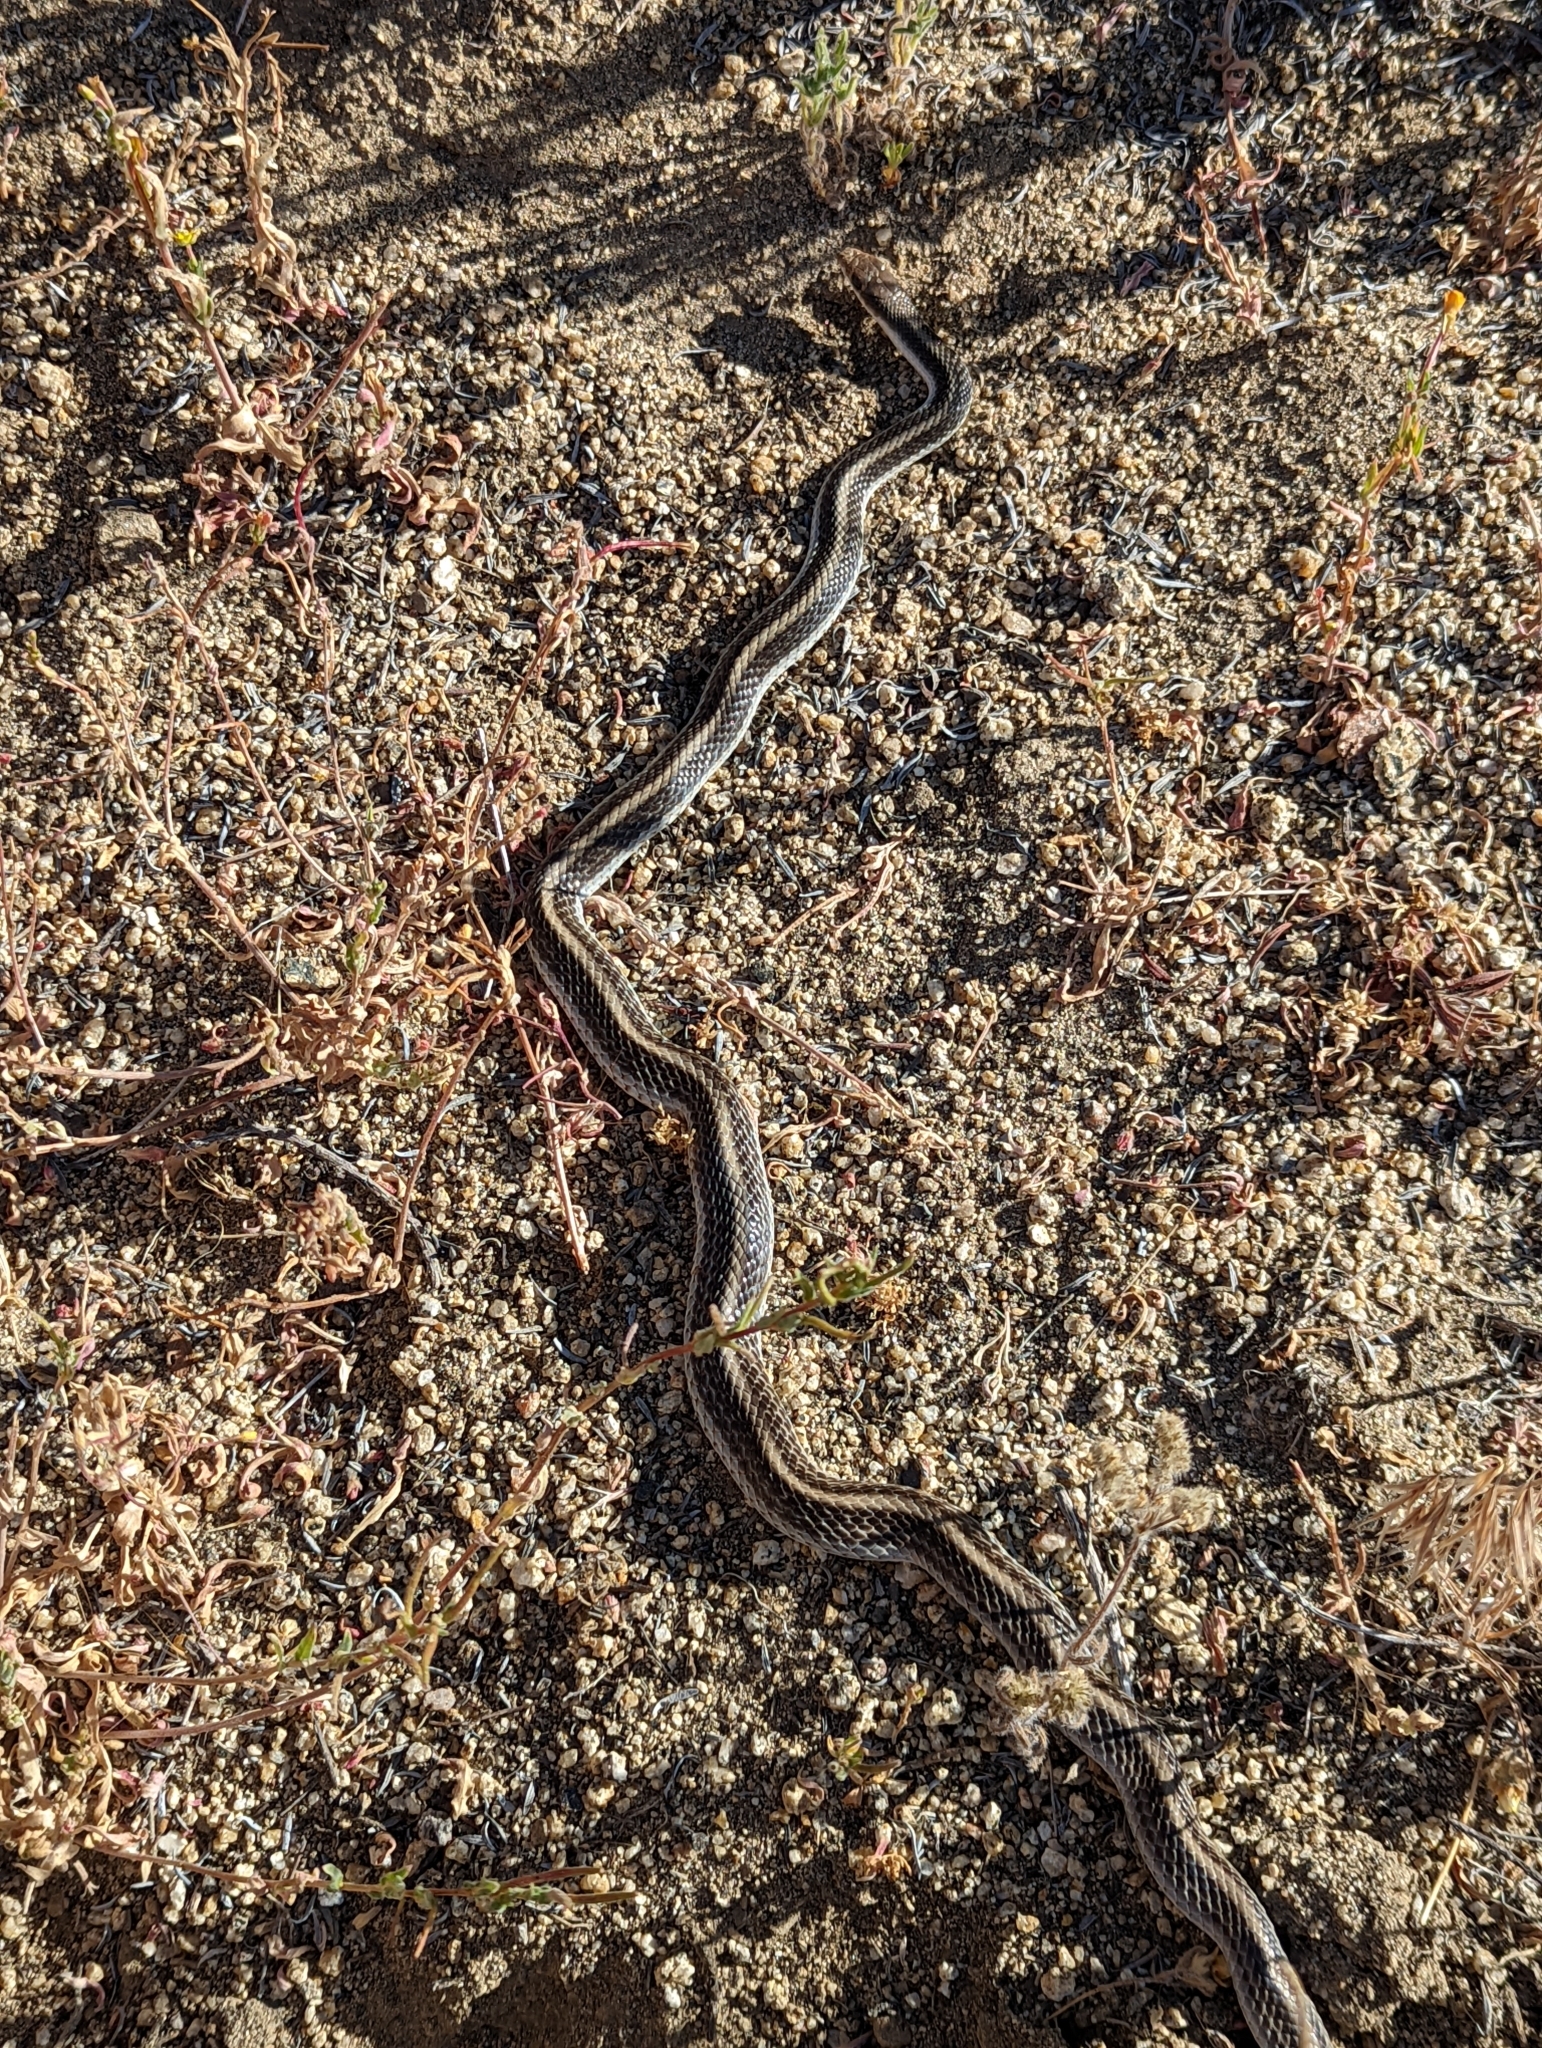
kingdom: Animalia
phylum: Chordata
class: Squamata
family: Colubridae
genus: Salvadora
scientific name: Salvadora hexalepis
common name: Western patchnose snake
